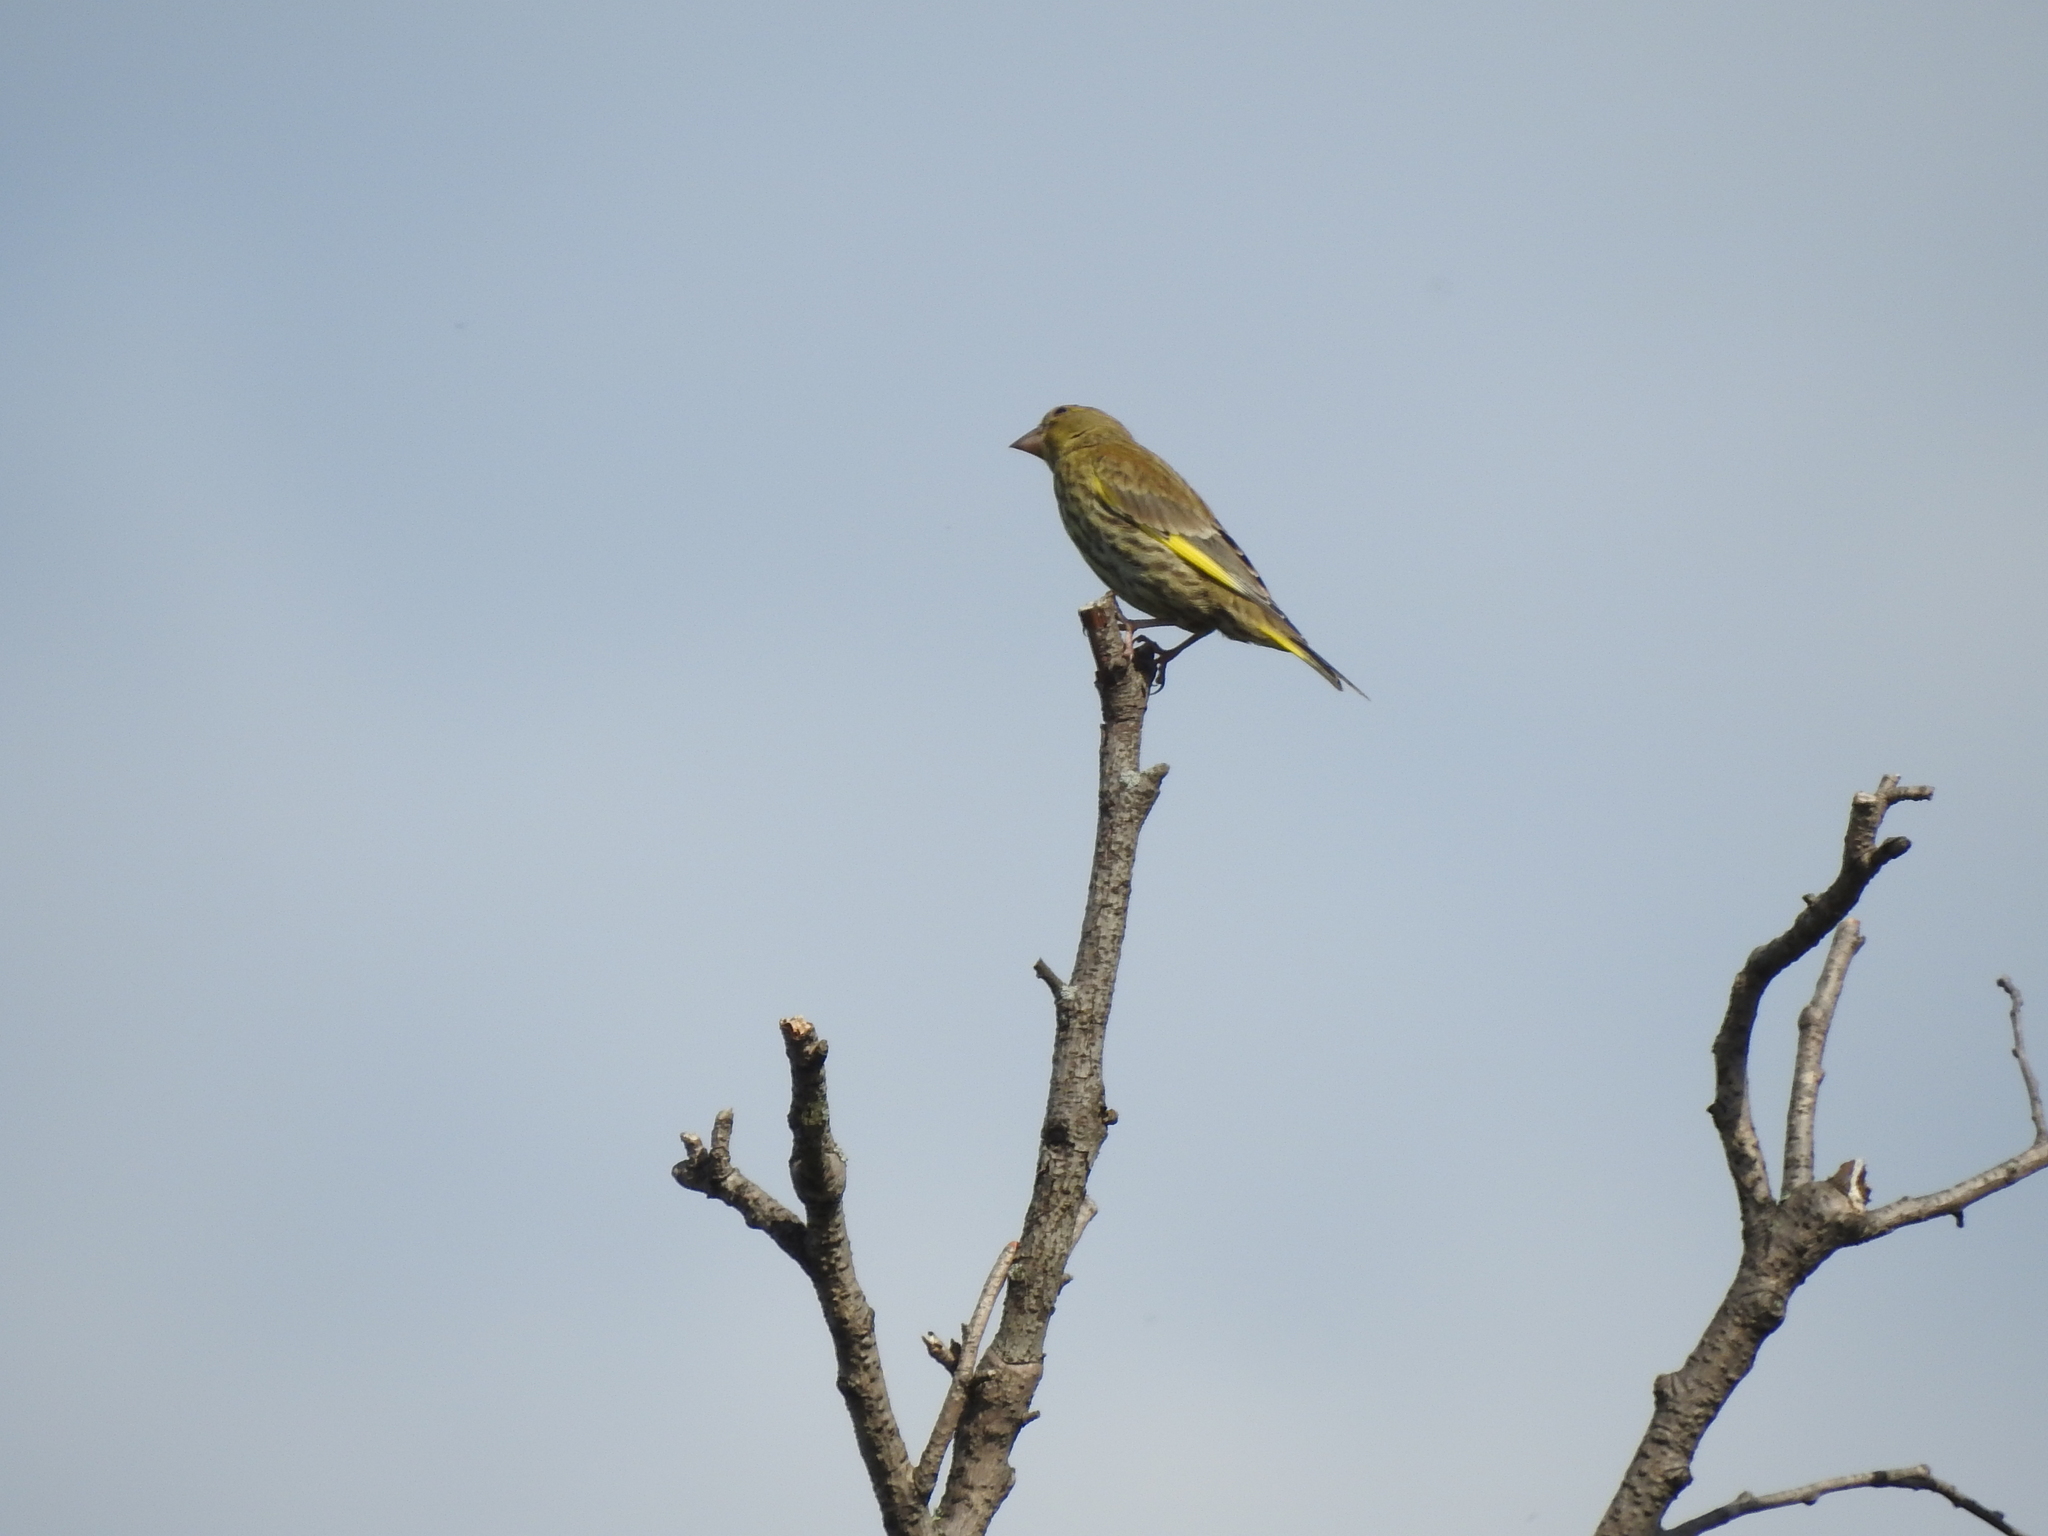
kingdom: Plantae
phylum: Tracheophyta
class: Liliopsida
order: Poales
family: Poaceae
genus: Chloris
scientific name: Chloris chloris
